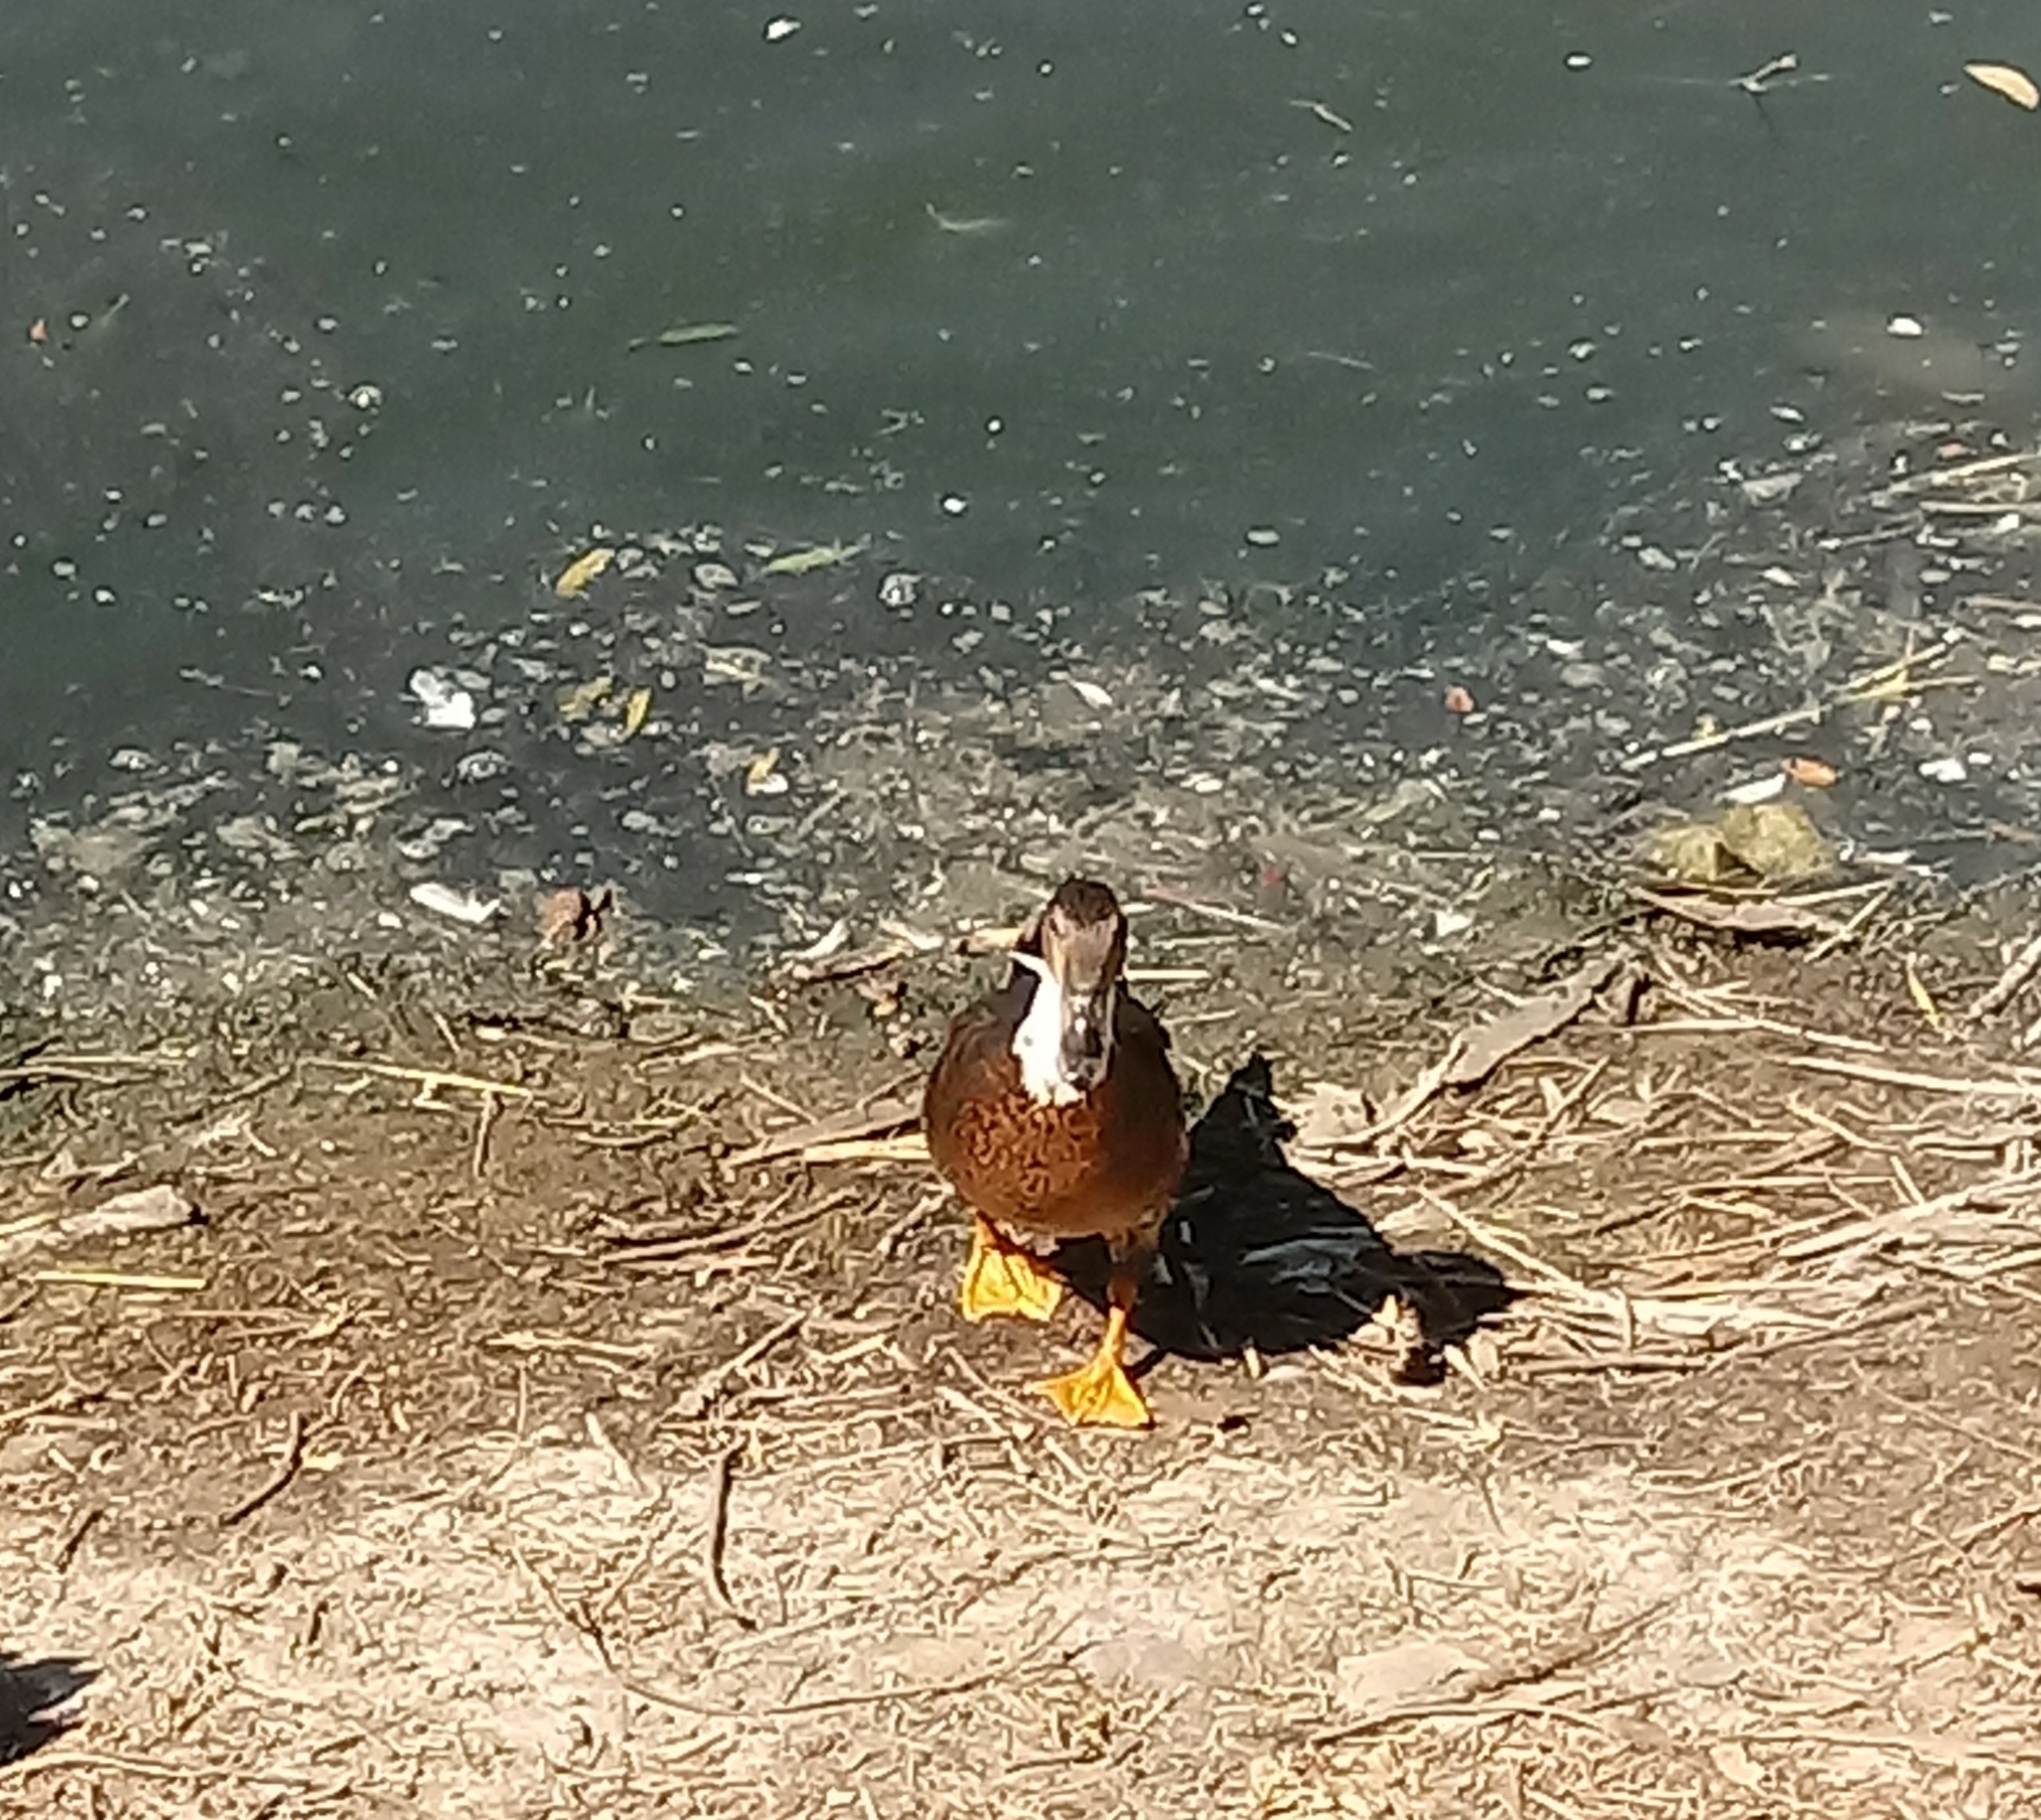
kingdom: Animalia
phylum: Chordata
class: Aves
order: Anseriformes
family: Anatidae
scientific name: Anatidae
